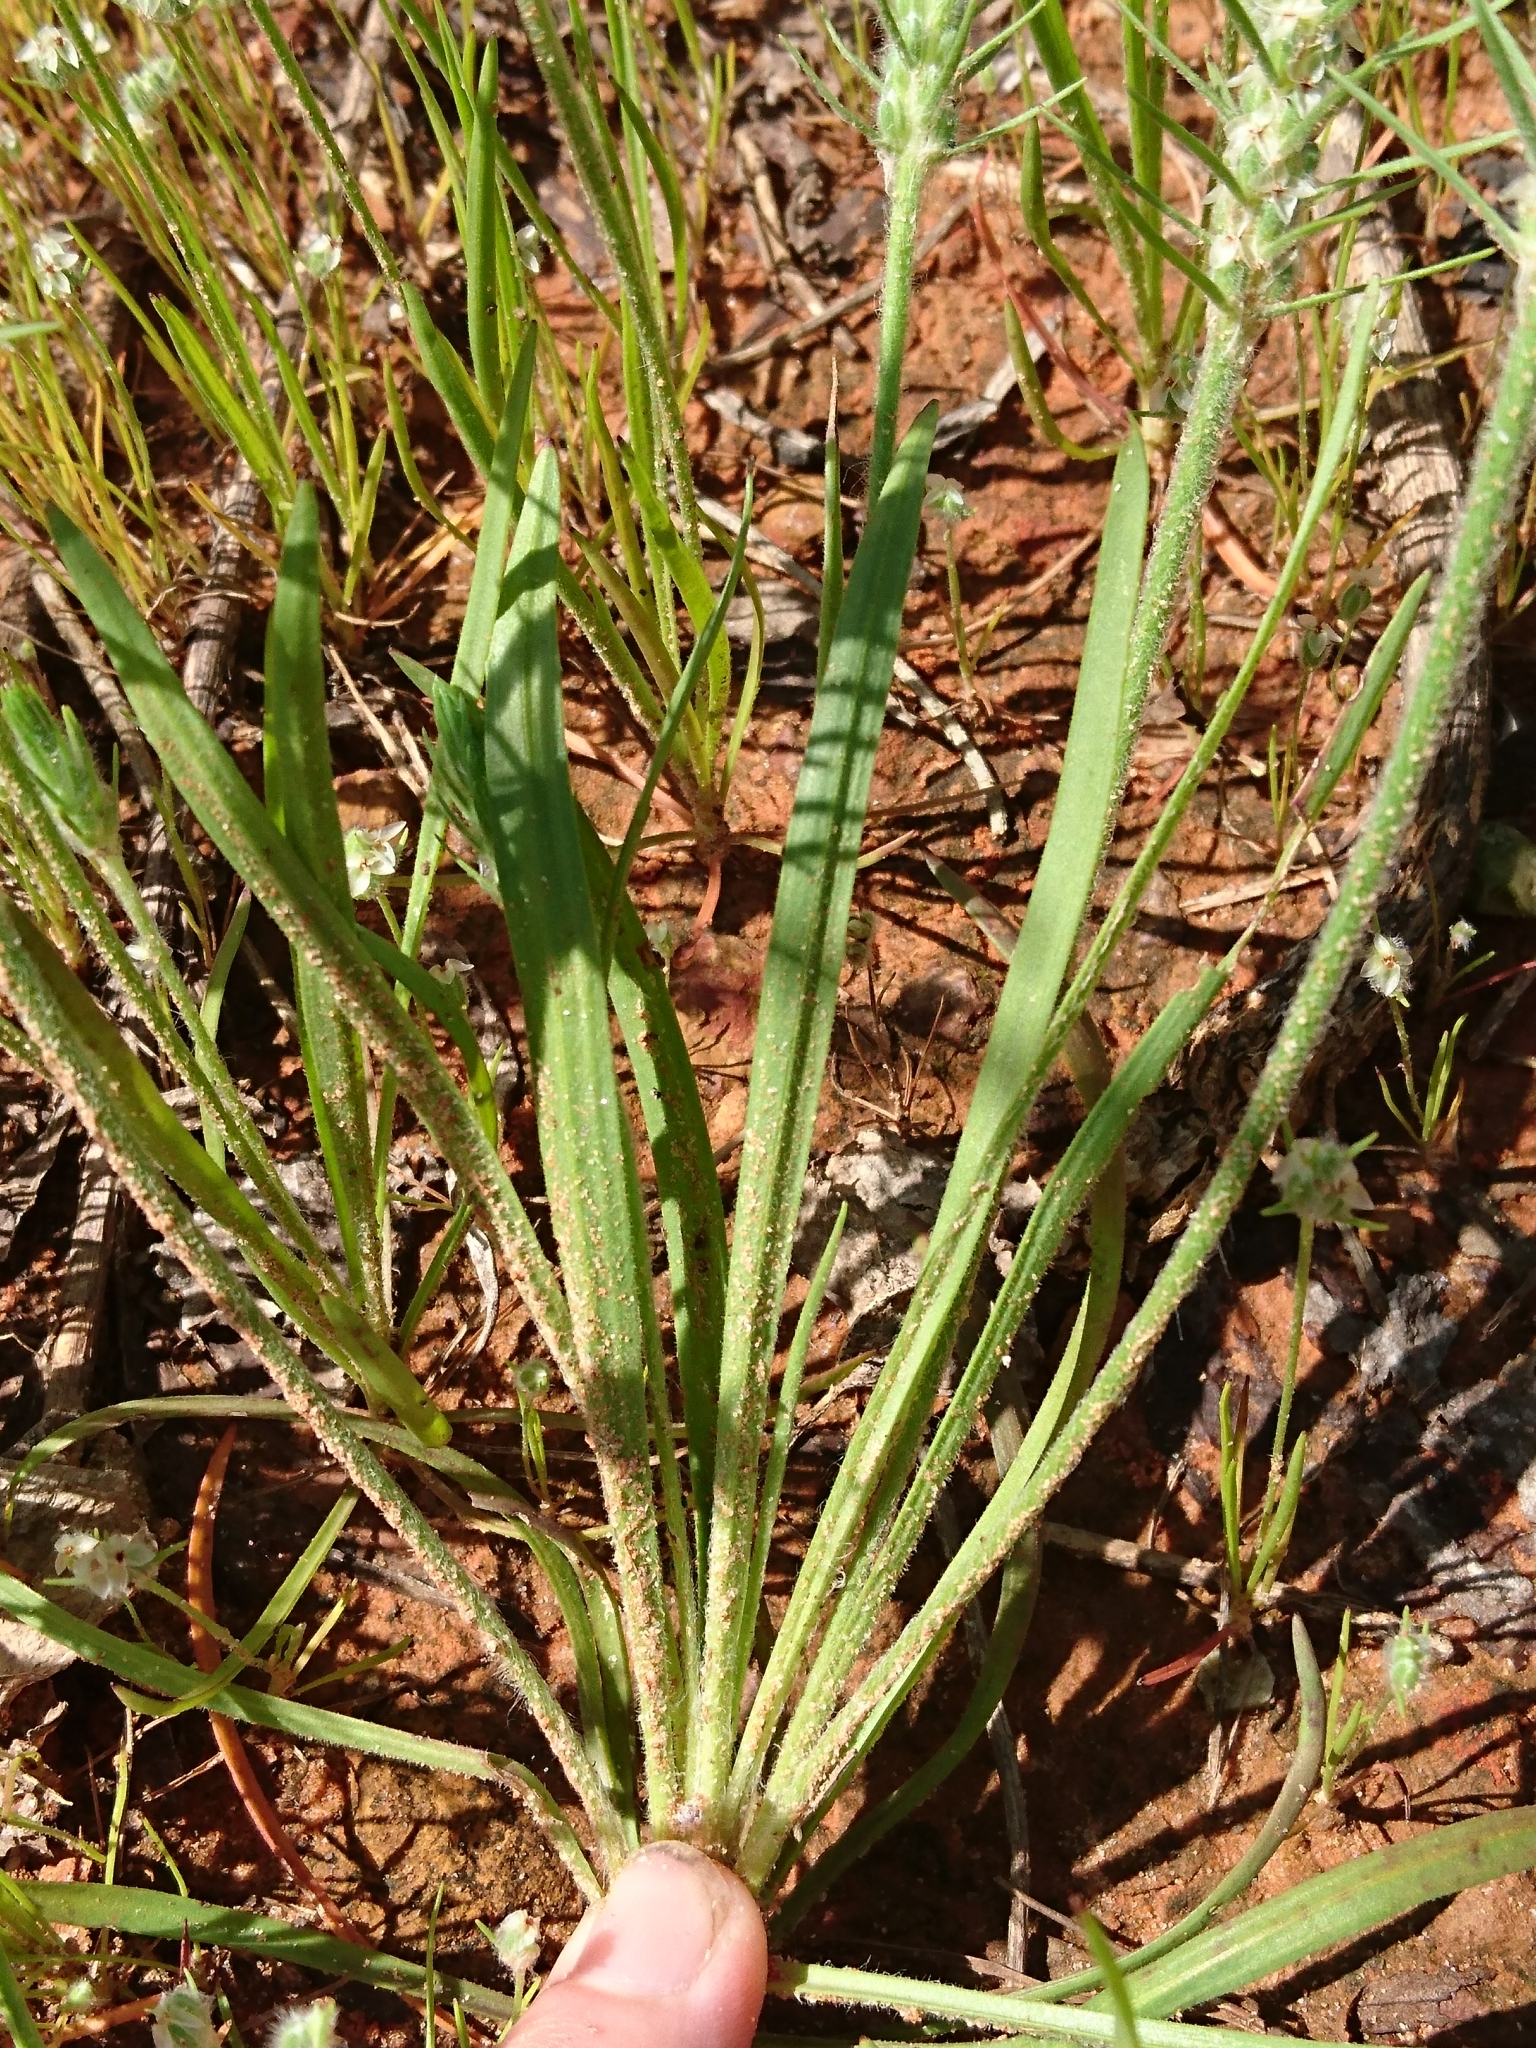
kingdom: Plantae
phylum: Tracheophyta
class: Magnoliopsida
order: Lamiales
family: Plantaginaceae
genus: Plantago
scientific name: Plantago aristata
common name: Bracted plantain
